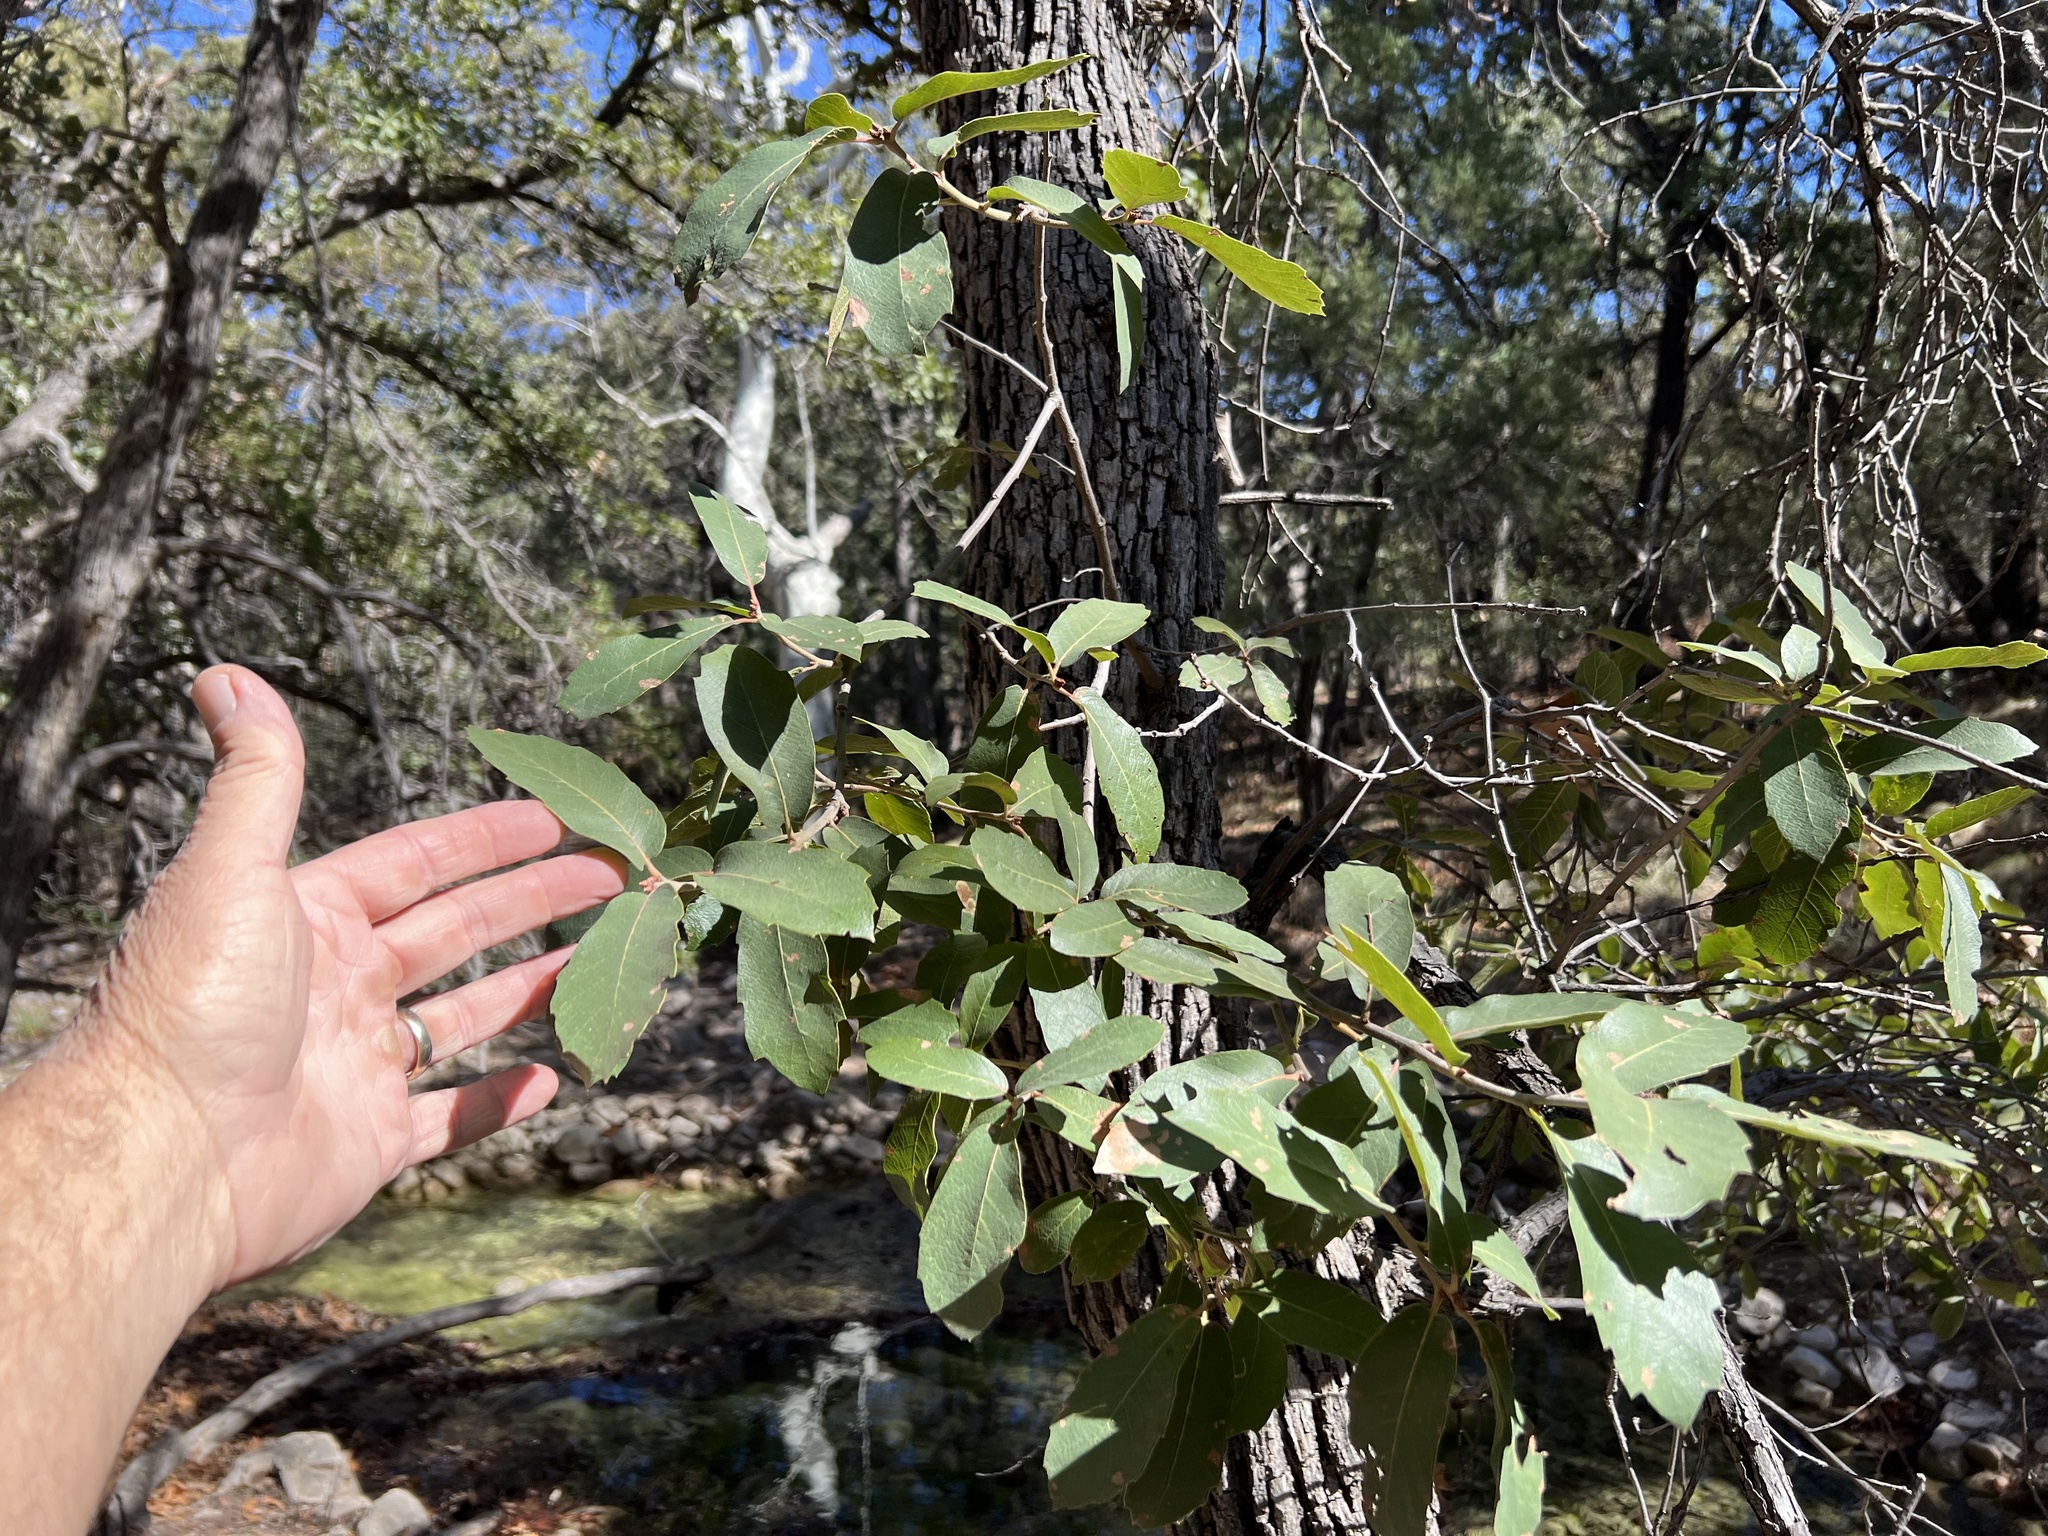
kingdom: Plantae
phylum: Tracheophyta
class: Magnoliopsida
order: Fagales
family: Fagaceae
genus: Quercus
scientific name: Quercus arizonica
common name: Arizona white oak
